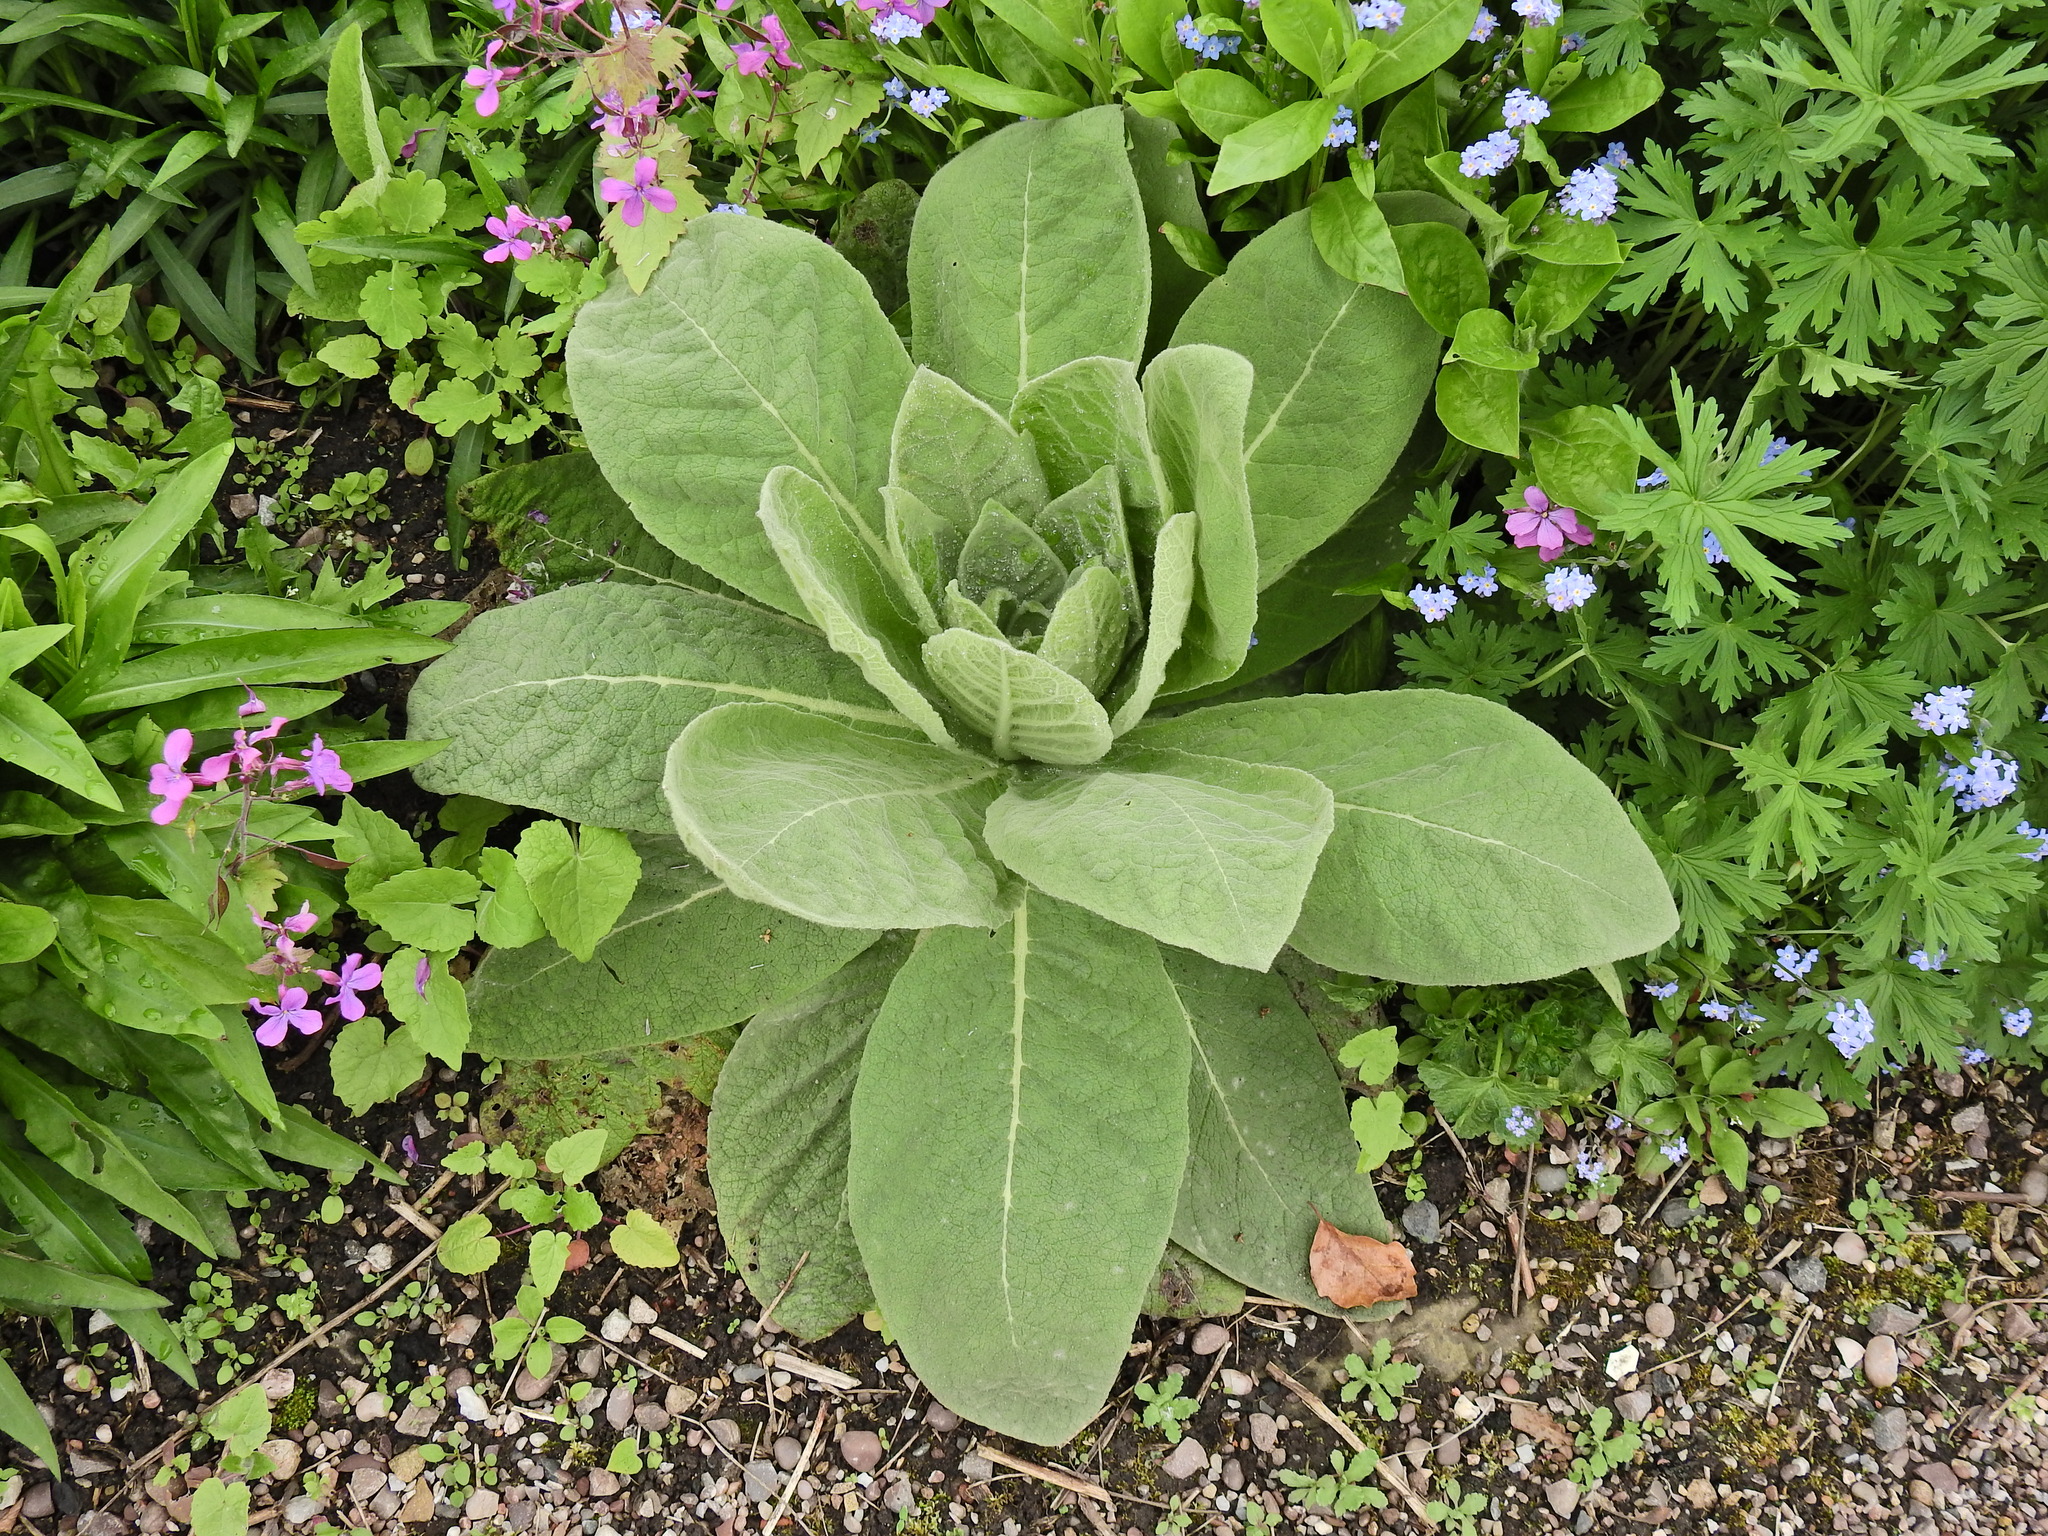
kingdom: Plantae
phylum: Tracheophyta
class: Magnoliopsida
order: Lamiales
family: Scrophulariaceae
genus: Verbascum
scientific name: Verbascum thapsus
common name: Common mullein
